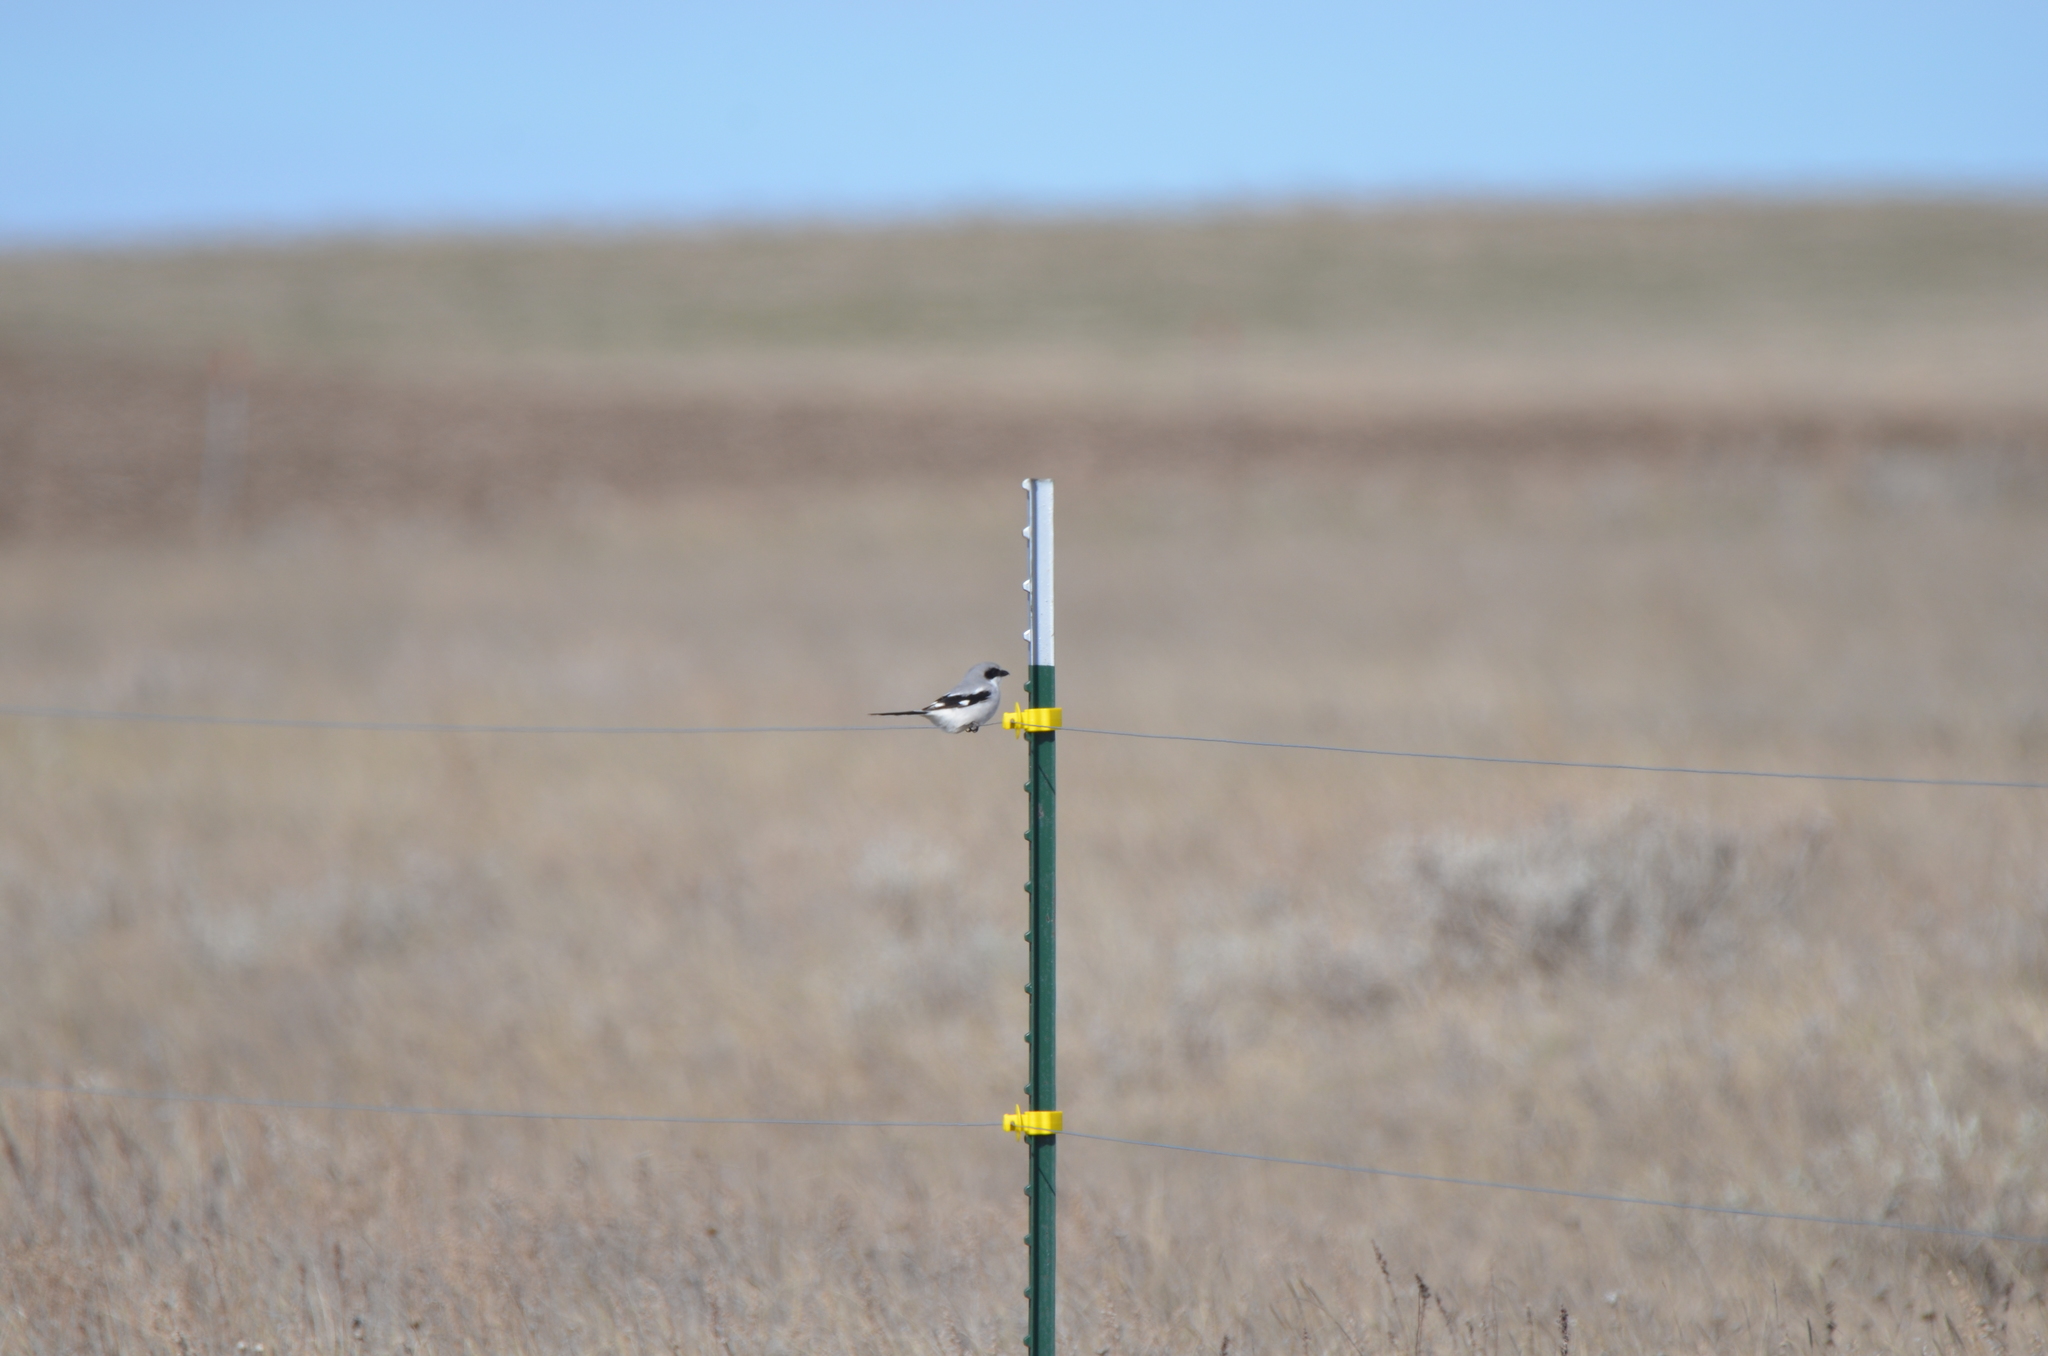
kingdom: Animalia
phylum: Chordata
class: Aves
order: Passeriformes
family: Laniidae
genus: Lanius
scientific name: Lanius ludovicianus
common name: Loggerhead shrike
